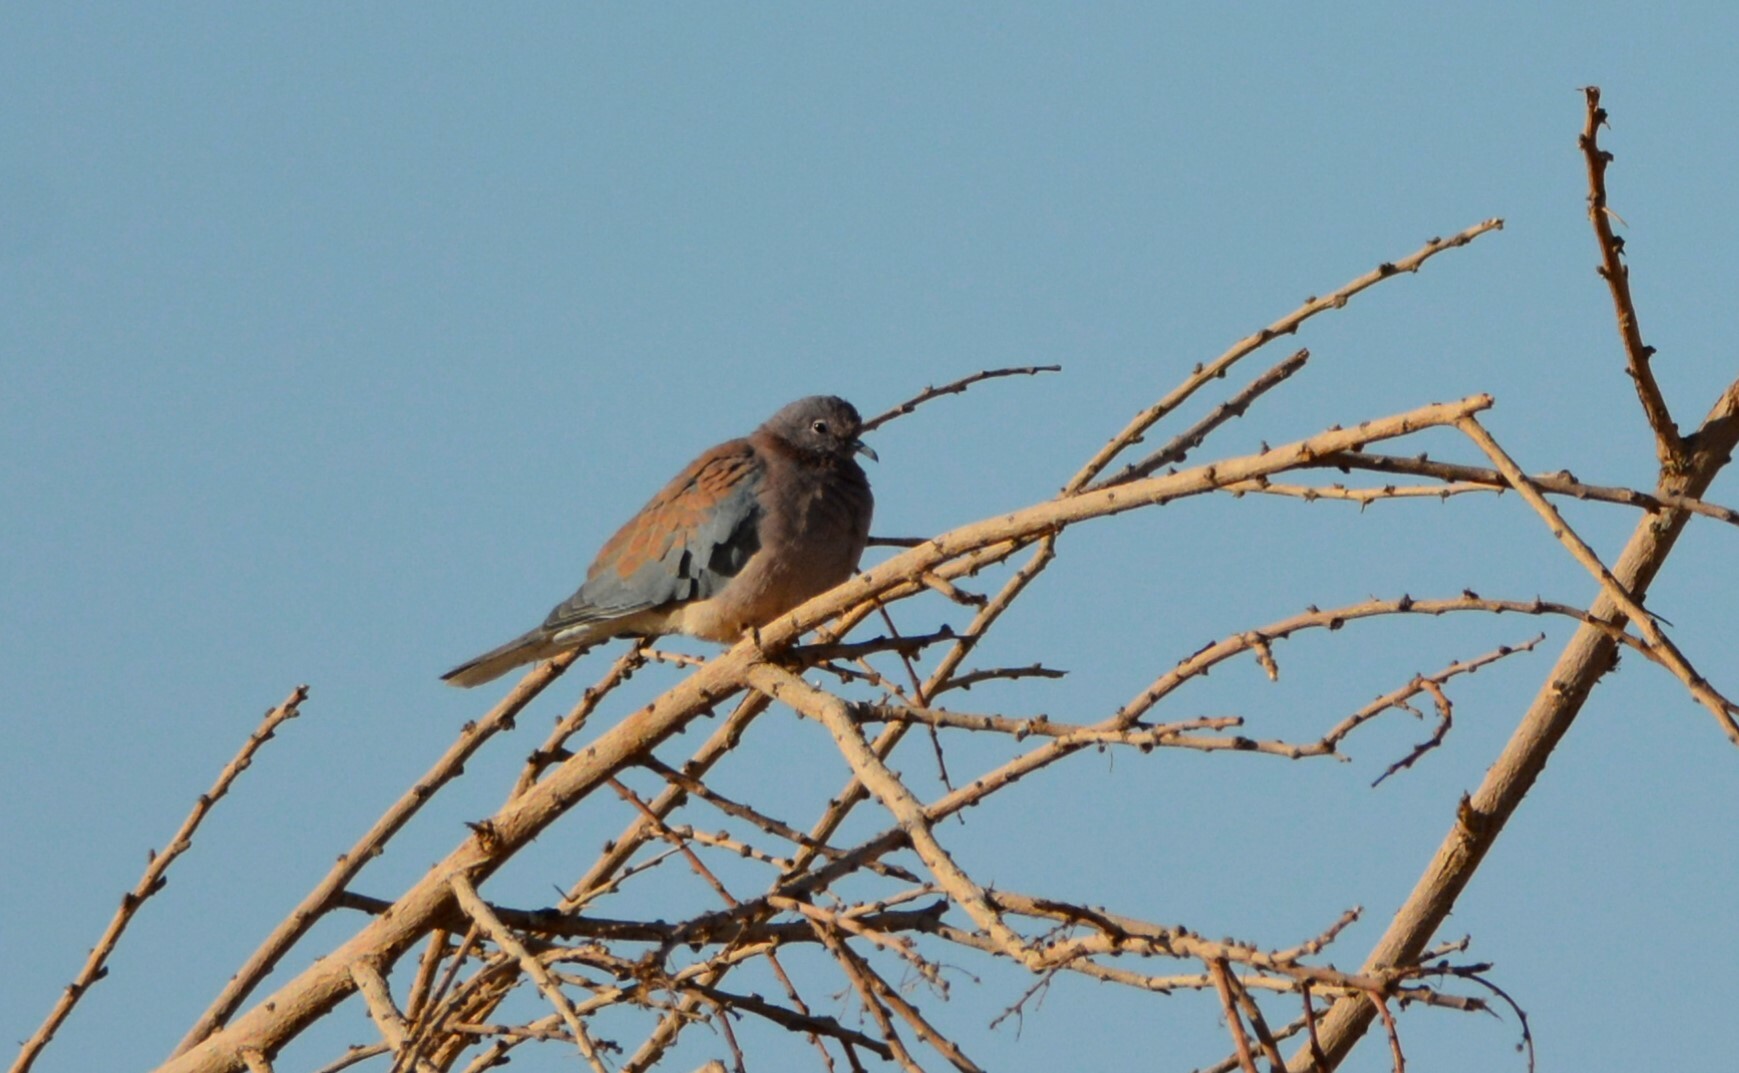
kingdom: Animalia
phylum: Chordata
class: Aves
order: Columbiformes
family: Columbidae
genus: Spilopelia
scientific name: Spilopelia senegalensis
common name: Laughing dove
